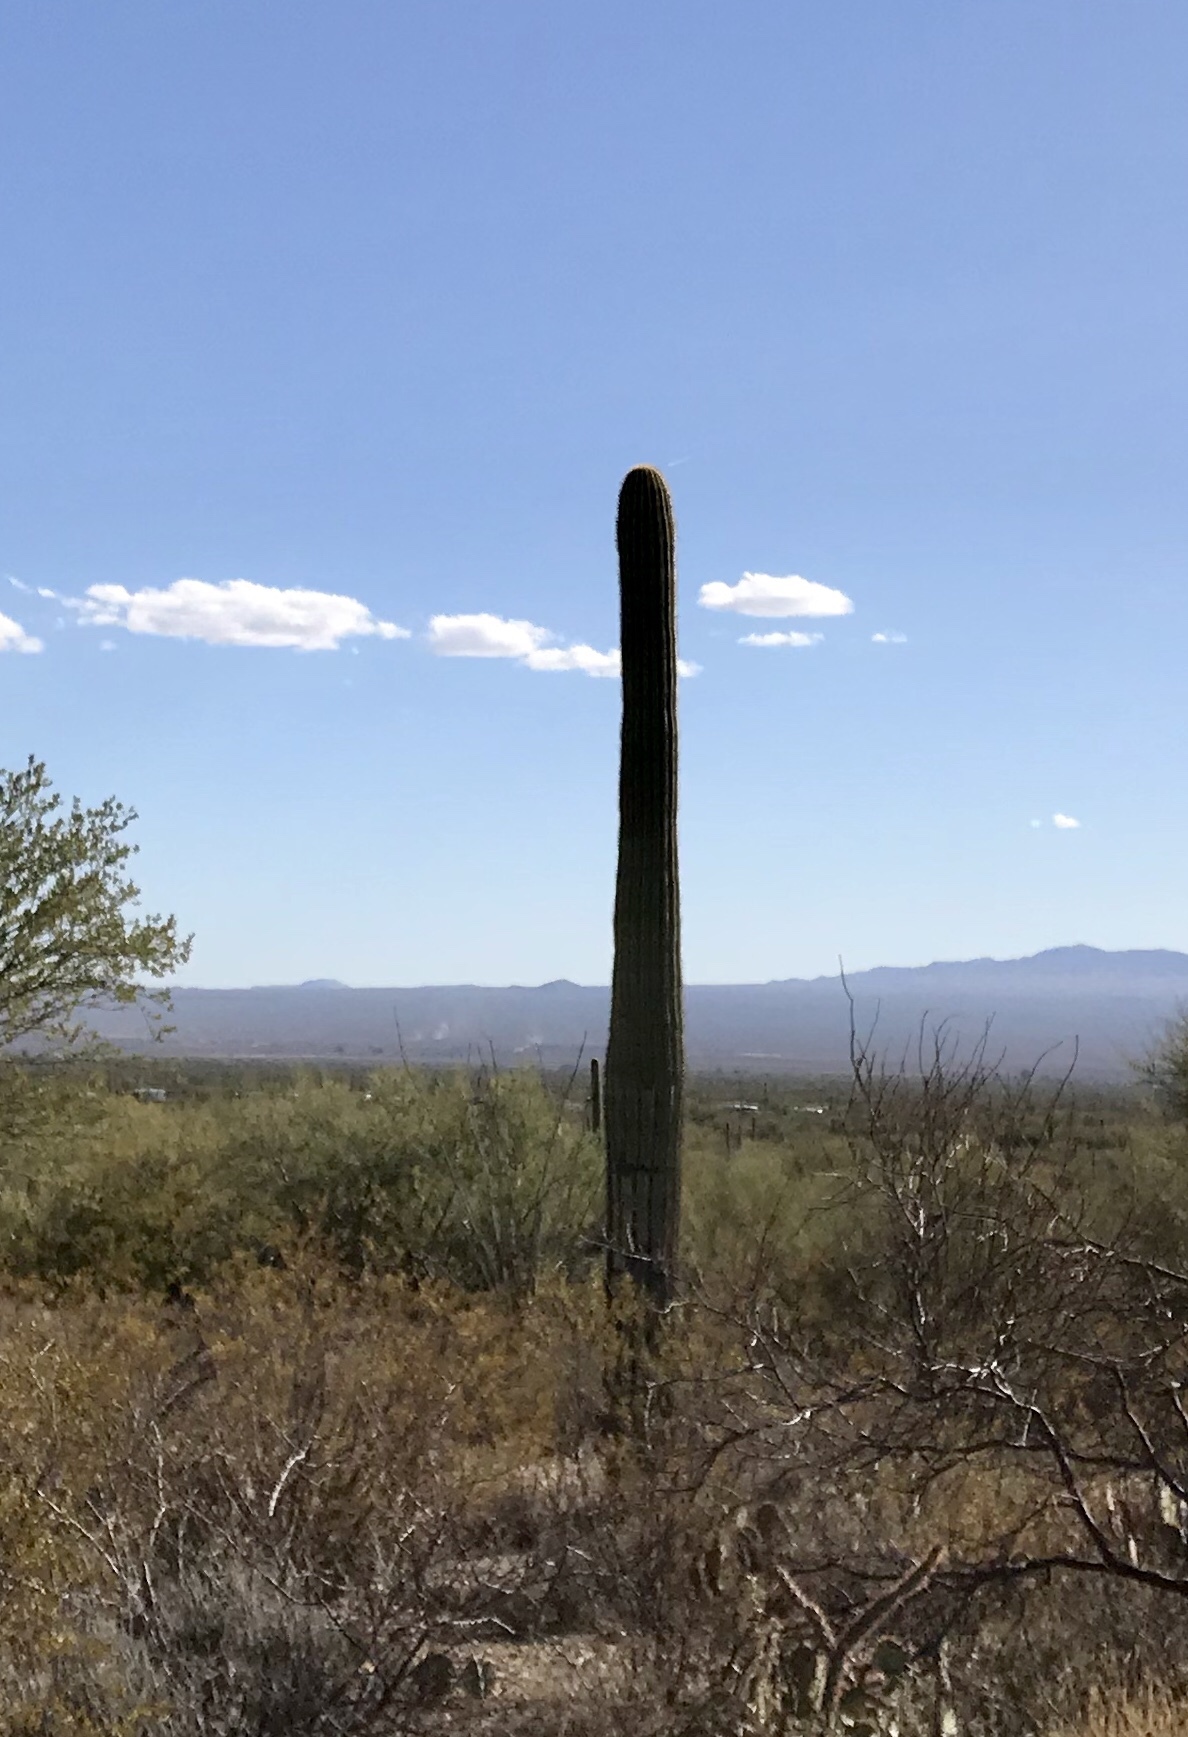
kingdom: Plantae
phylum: Tracheophyta
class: Magnoliopsida
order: Caryophyllales
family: Cactaceae
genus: Carnegiea
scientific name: Carnegiea gigantea
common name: Saguaro
